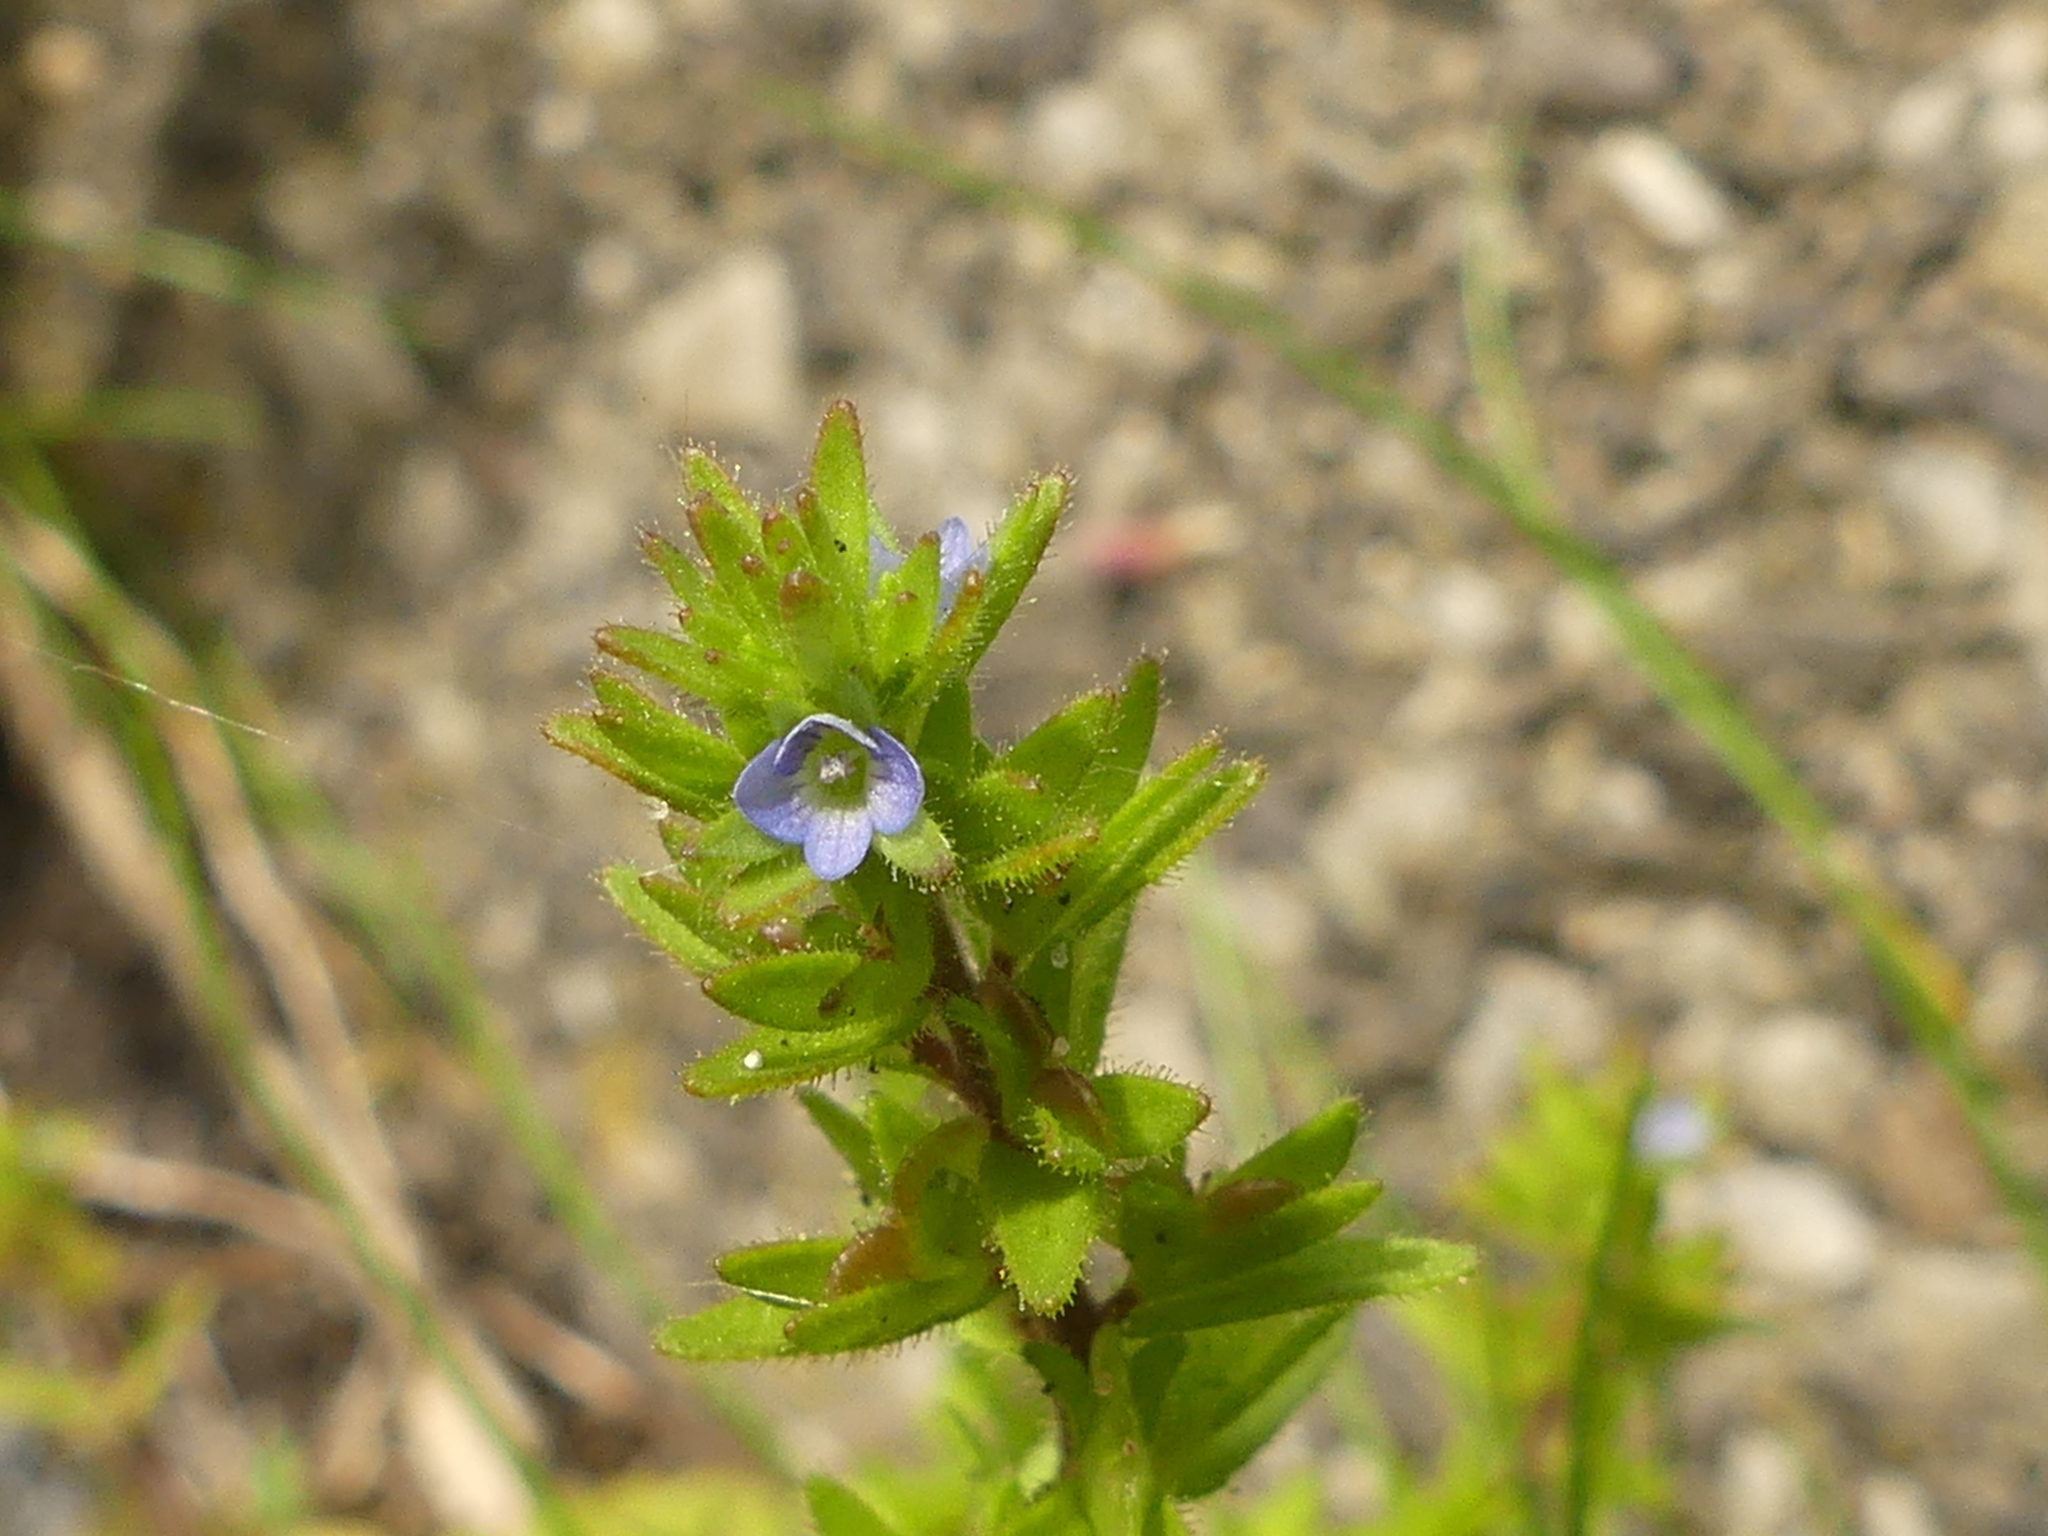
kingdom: Plantae
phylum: Tracheophyta
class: Magnoliopsida
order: Lamiales
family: Plantaginaceae
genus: Veronica
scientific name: Veronica arvensis
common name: Corn speedwell
